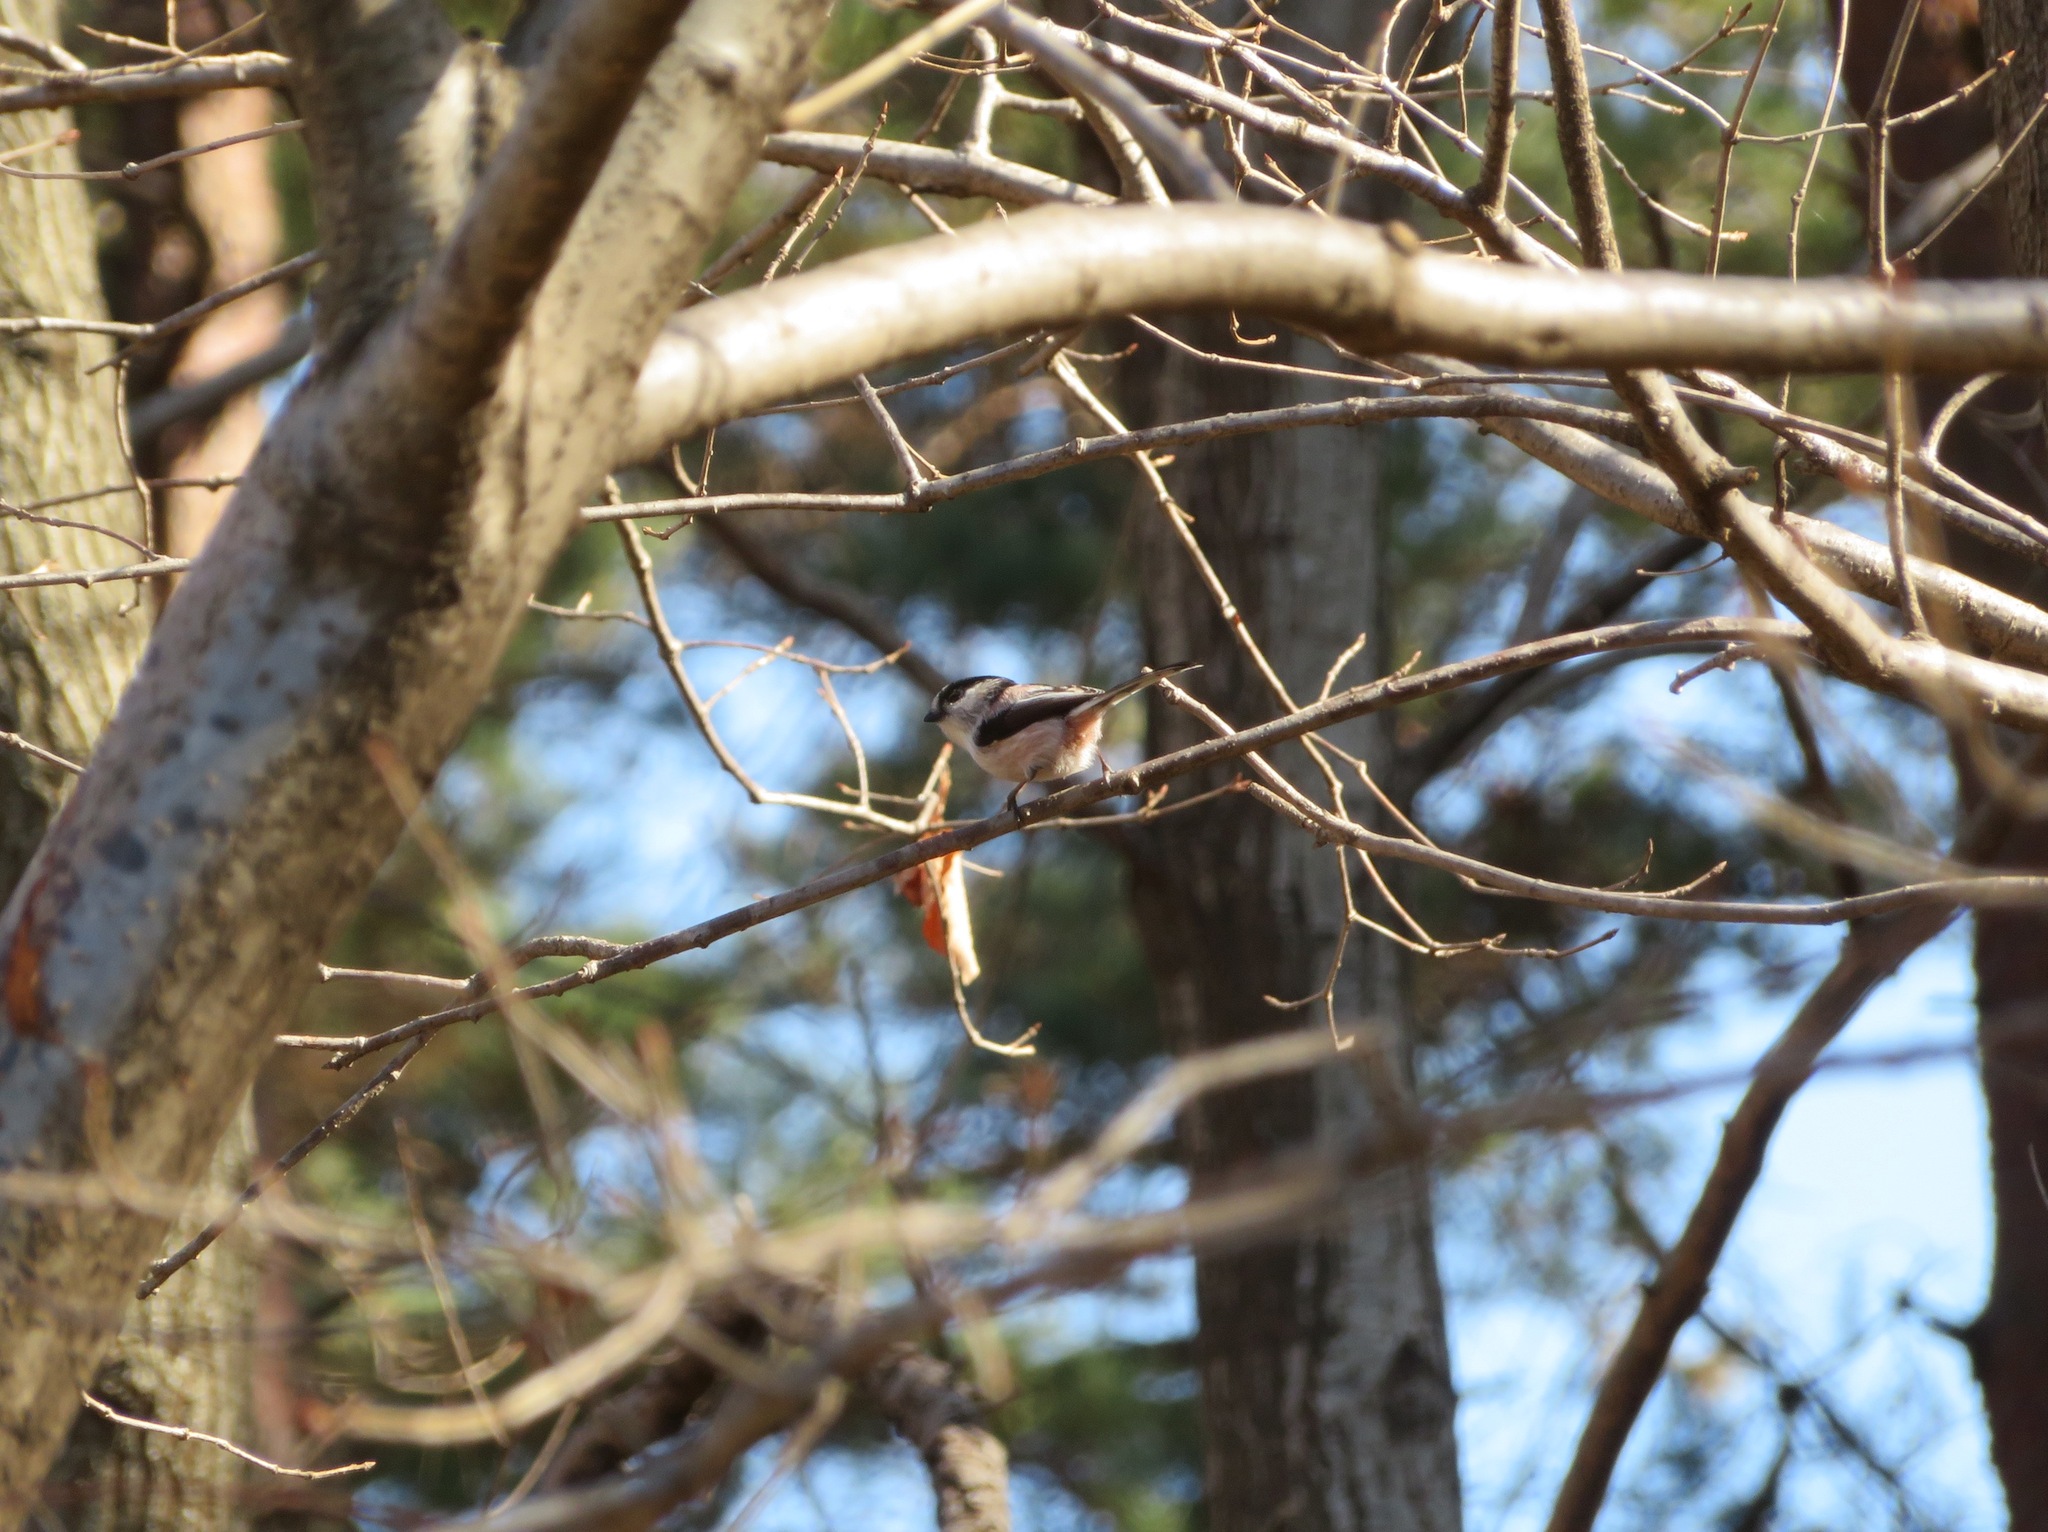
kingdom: Animalia
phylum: Chordata
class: Aves
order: Passeriformes
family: Aegithalidae
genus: Aegithalos
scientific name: Aegithalos caudatus
